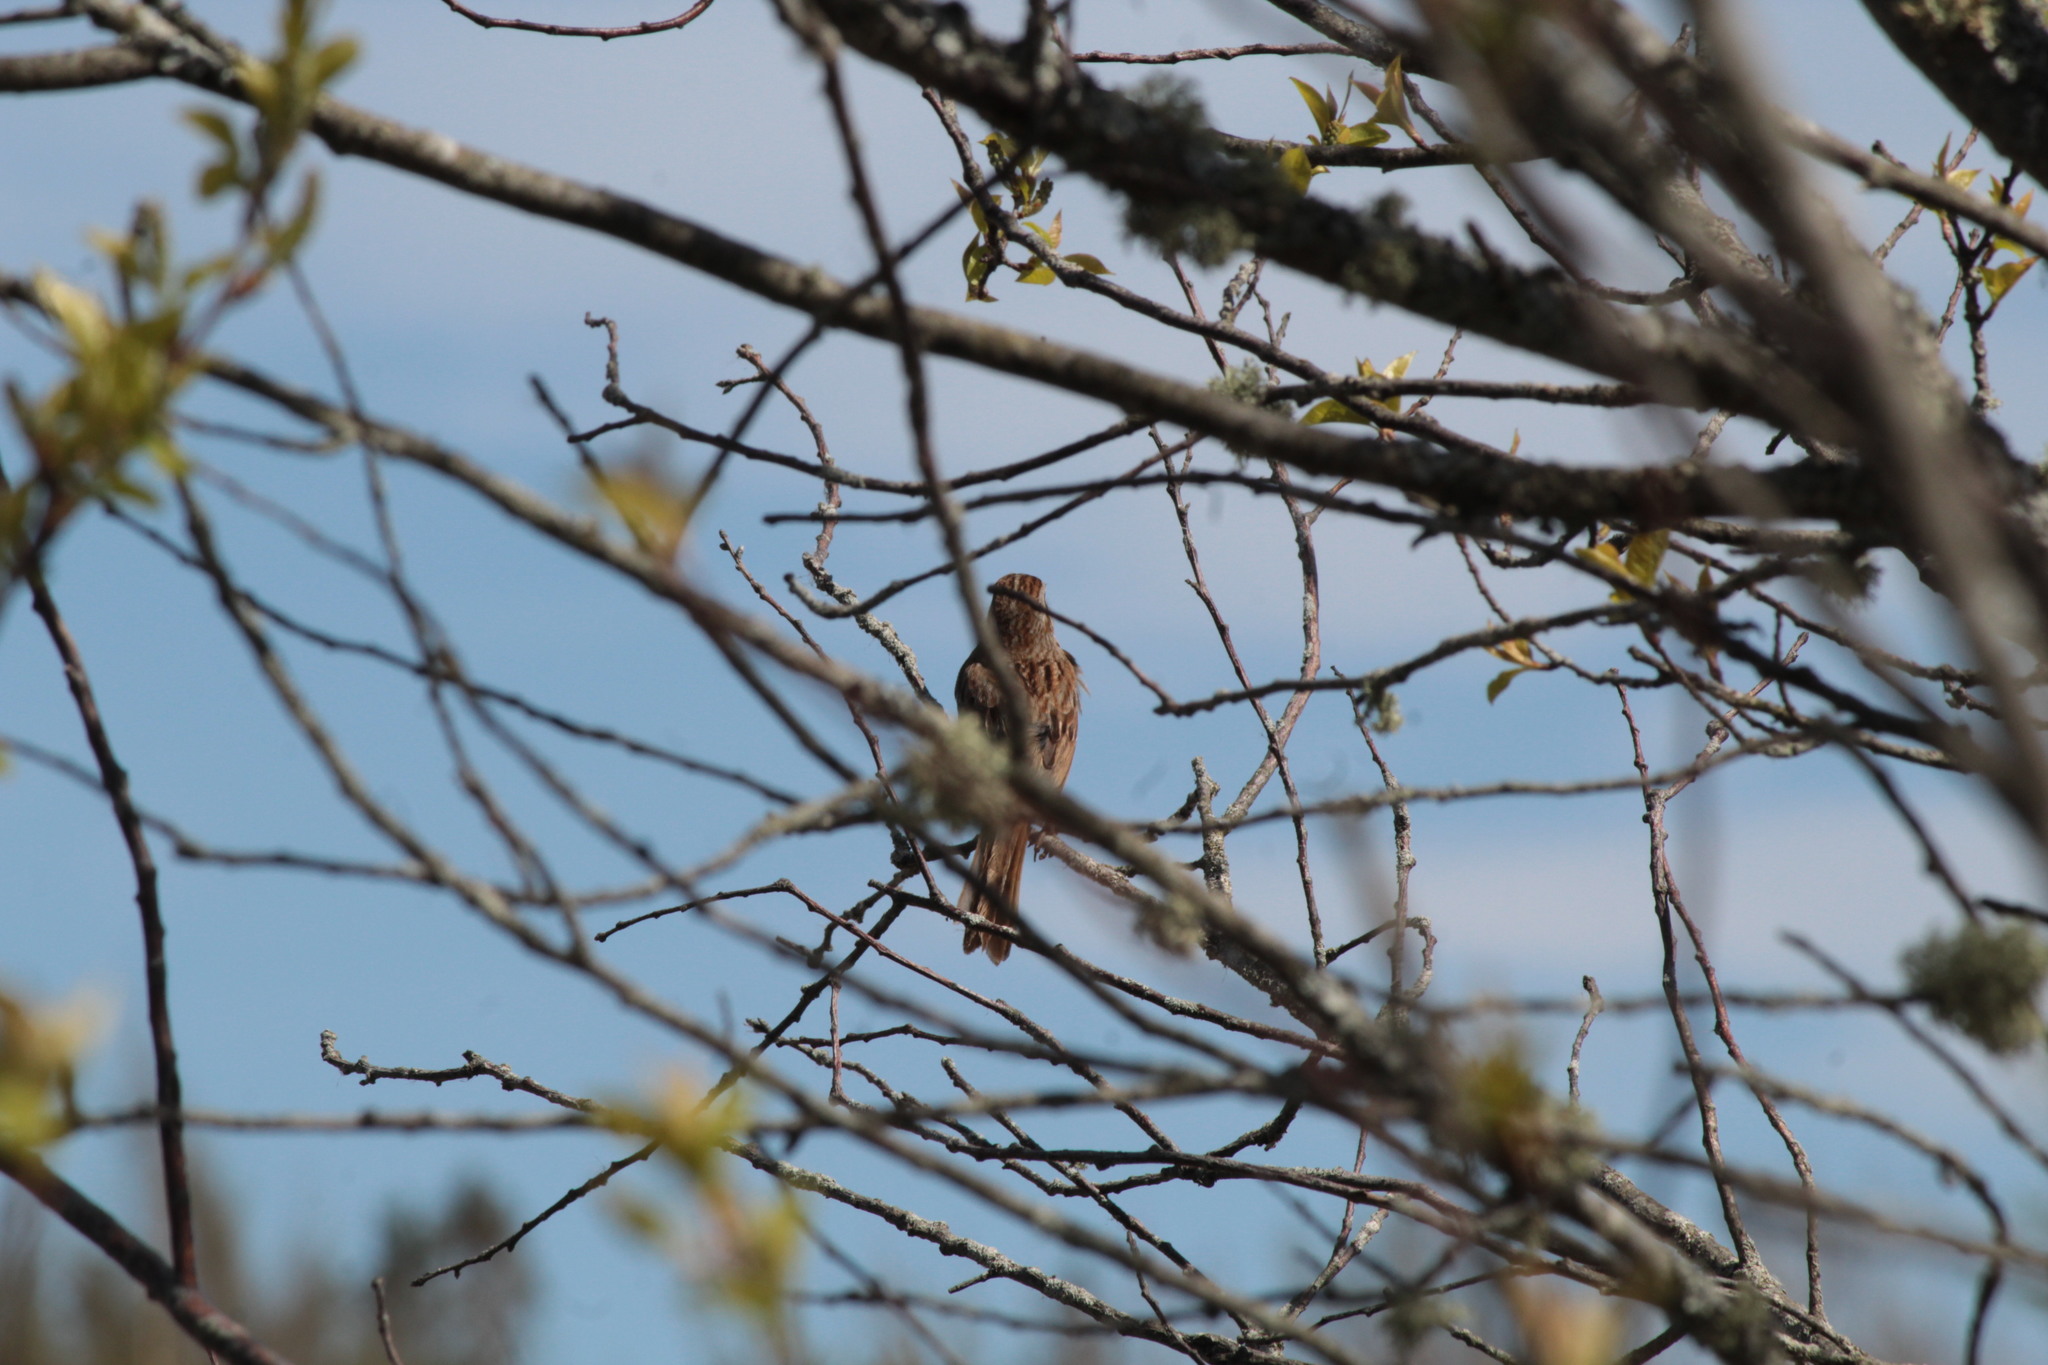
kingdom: Animalia
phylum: Chordata
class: Aves
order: Passeriformes
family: Passerellidae
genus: Melospiza
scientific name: Melospiza melodia
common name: Song sparrow
